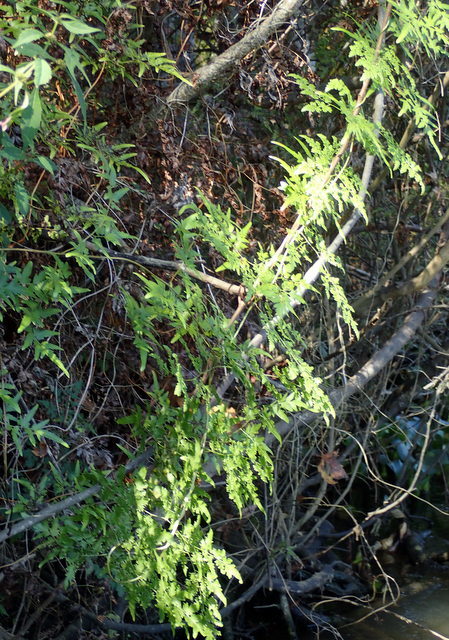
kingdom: Plantae
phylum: Tracheophyta
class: Polypodiopsida
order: Schizaeales
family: Lygodiaceae
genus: Lygodium
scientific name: Lygodium japonicum
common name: Japanese climbing fern
